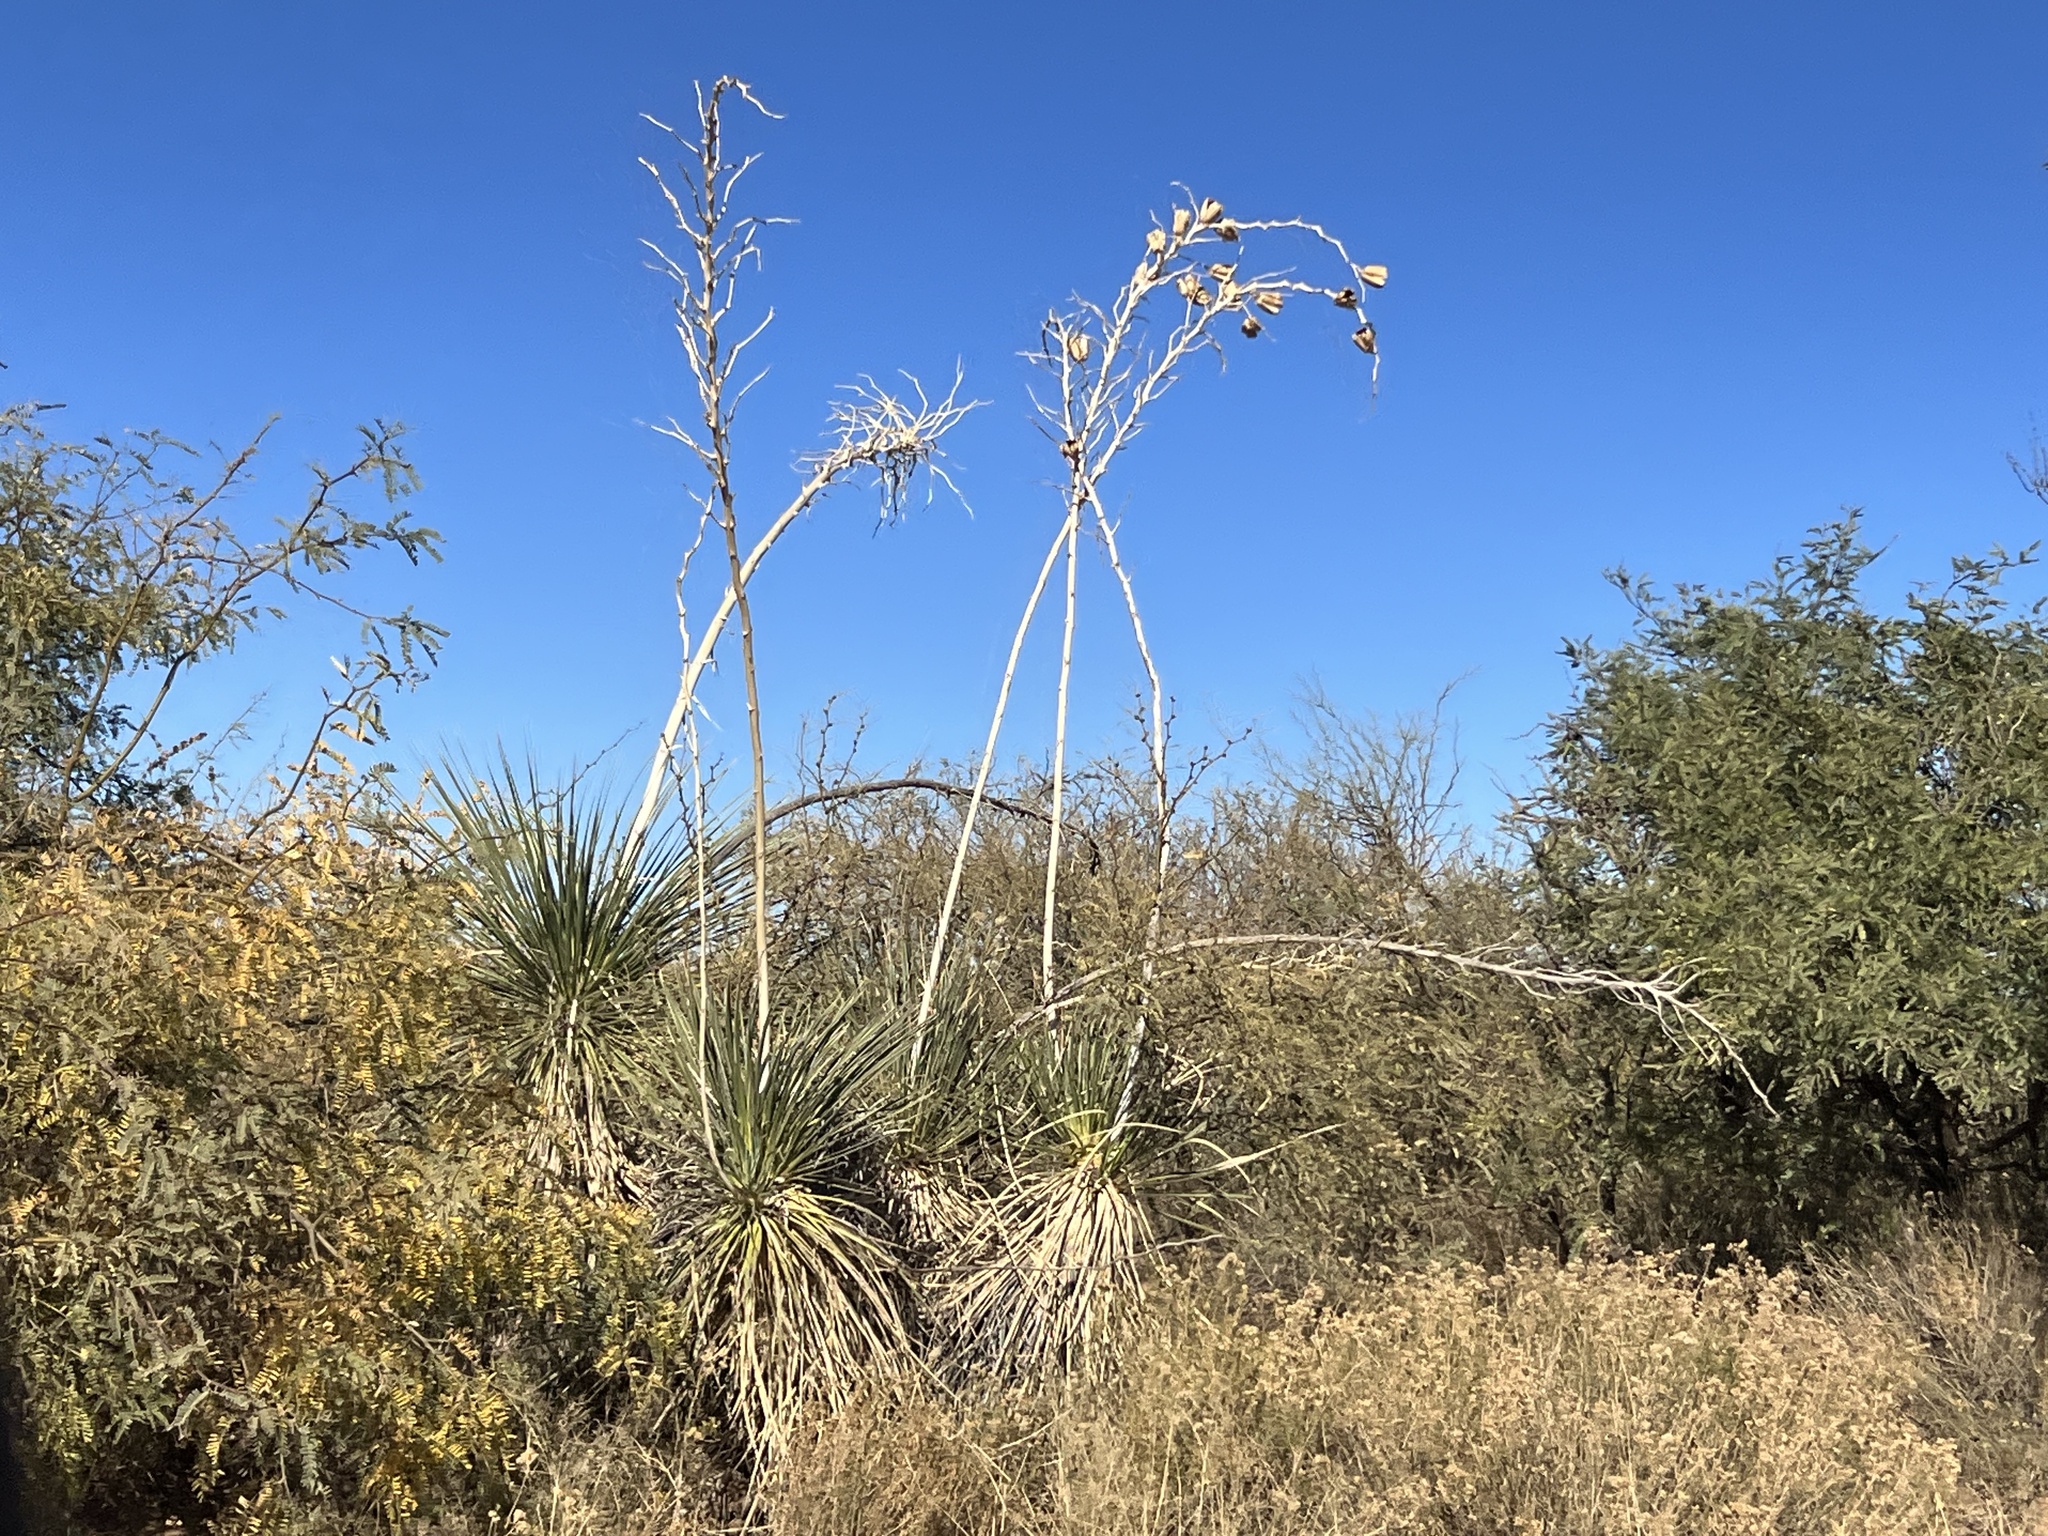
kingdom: Plantae
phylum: Tracheophyta
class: Liliopsida
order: Asparagales
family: Asparagaceae
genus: Yucca
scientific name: Yucca elata
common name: Palmella
